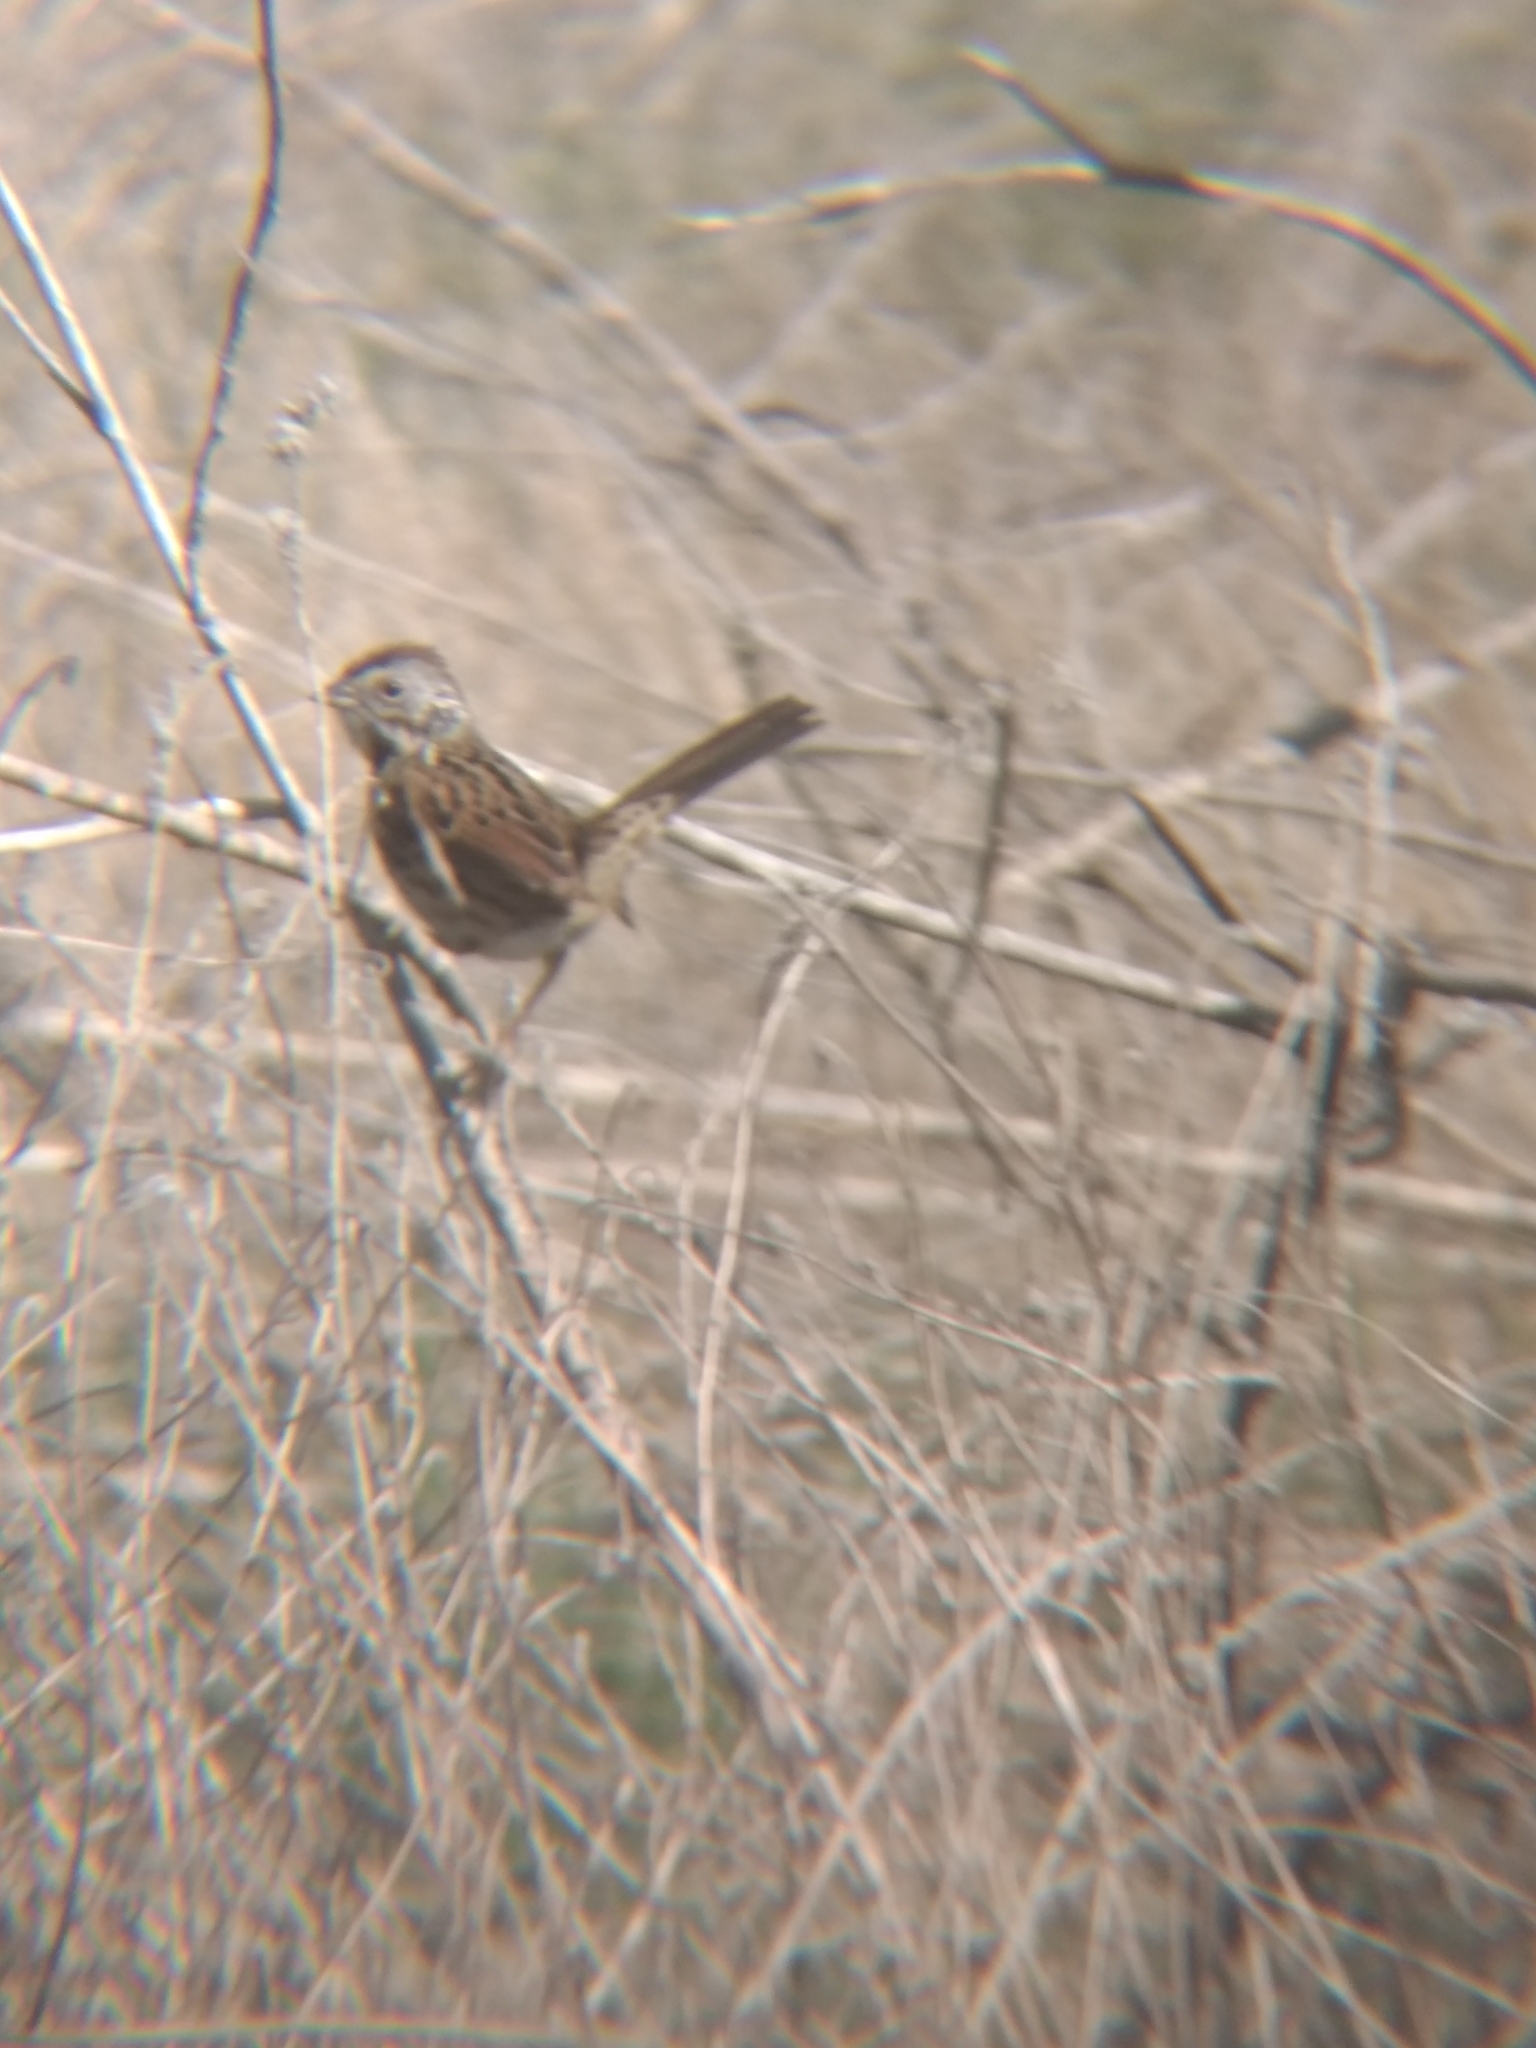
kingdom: Animalia
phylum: Chordata
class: Aves
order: Passeriformes
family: Passerellidae
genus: Melospiza
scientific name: Melospiza melodia
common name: Song sparrow
